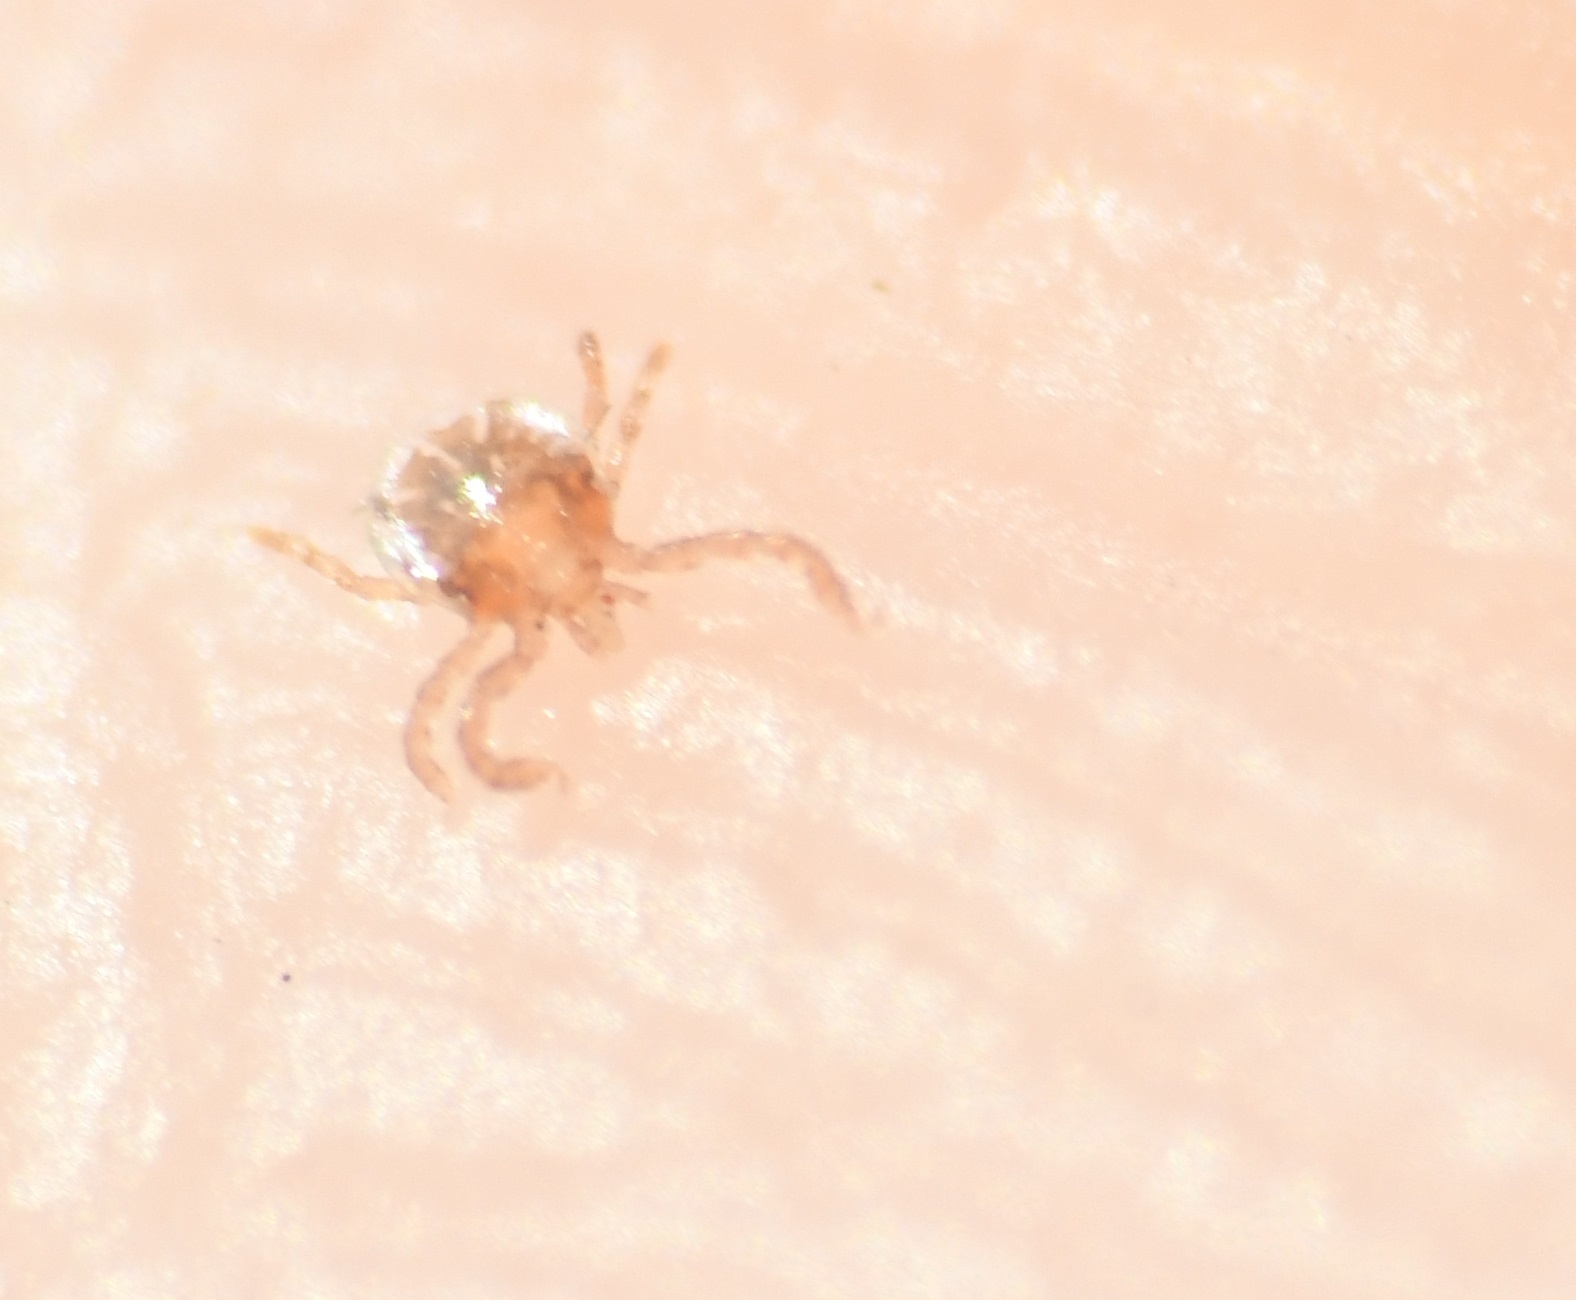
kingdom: Animalia
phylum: Arthropoda
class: Arachnida
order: Ixodida
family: Ixodidae
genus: Amblyomma
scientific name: Amblyomma americanum
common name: Lone star tick
